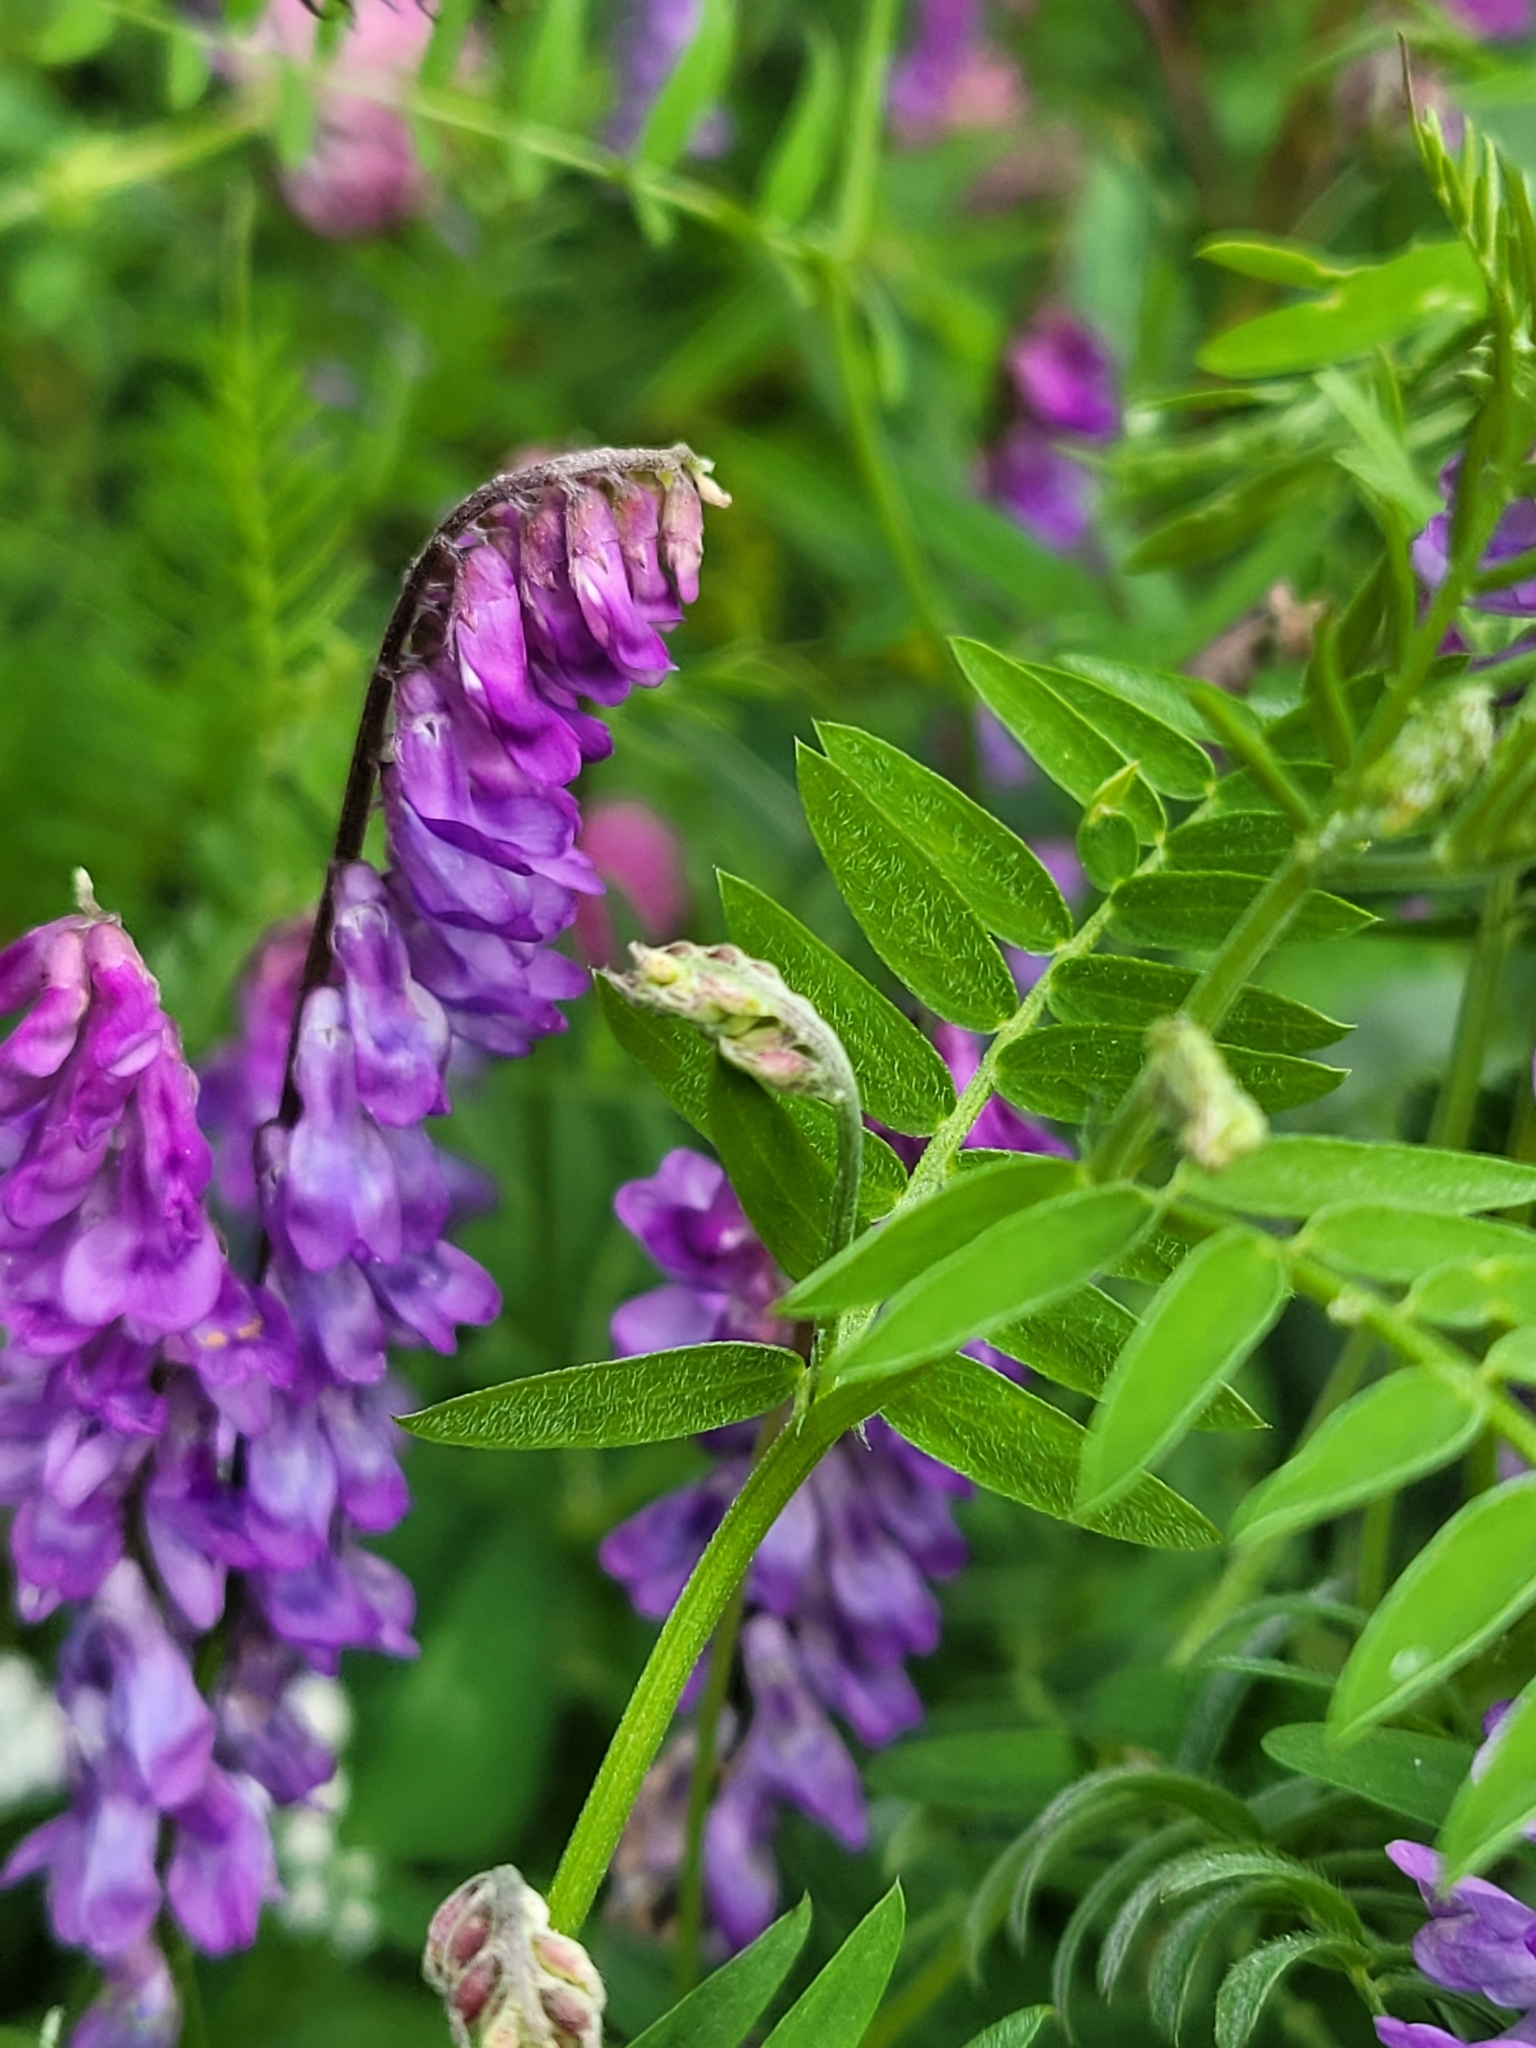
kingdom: Plantae
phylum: Tracheophyta
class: Magnoliopsida
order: Fabales
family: Fabaceae
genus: Vicia
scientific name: Vicia cracca
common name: Bird vetch
